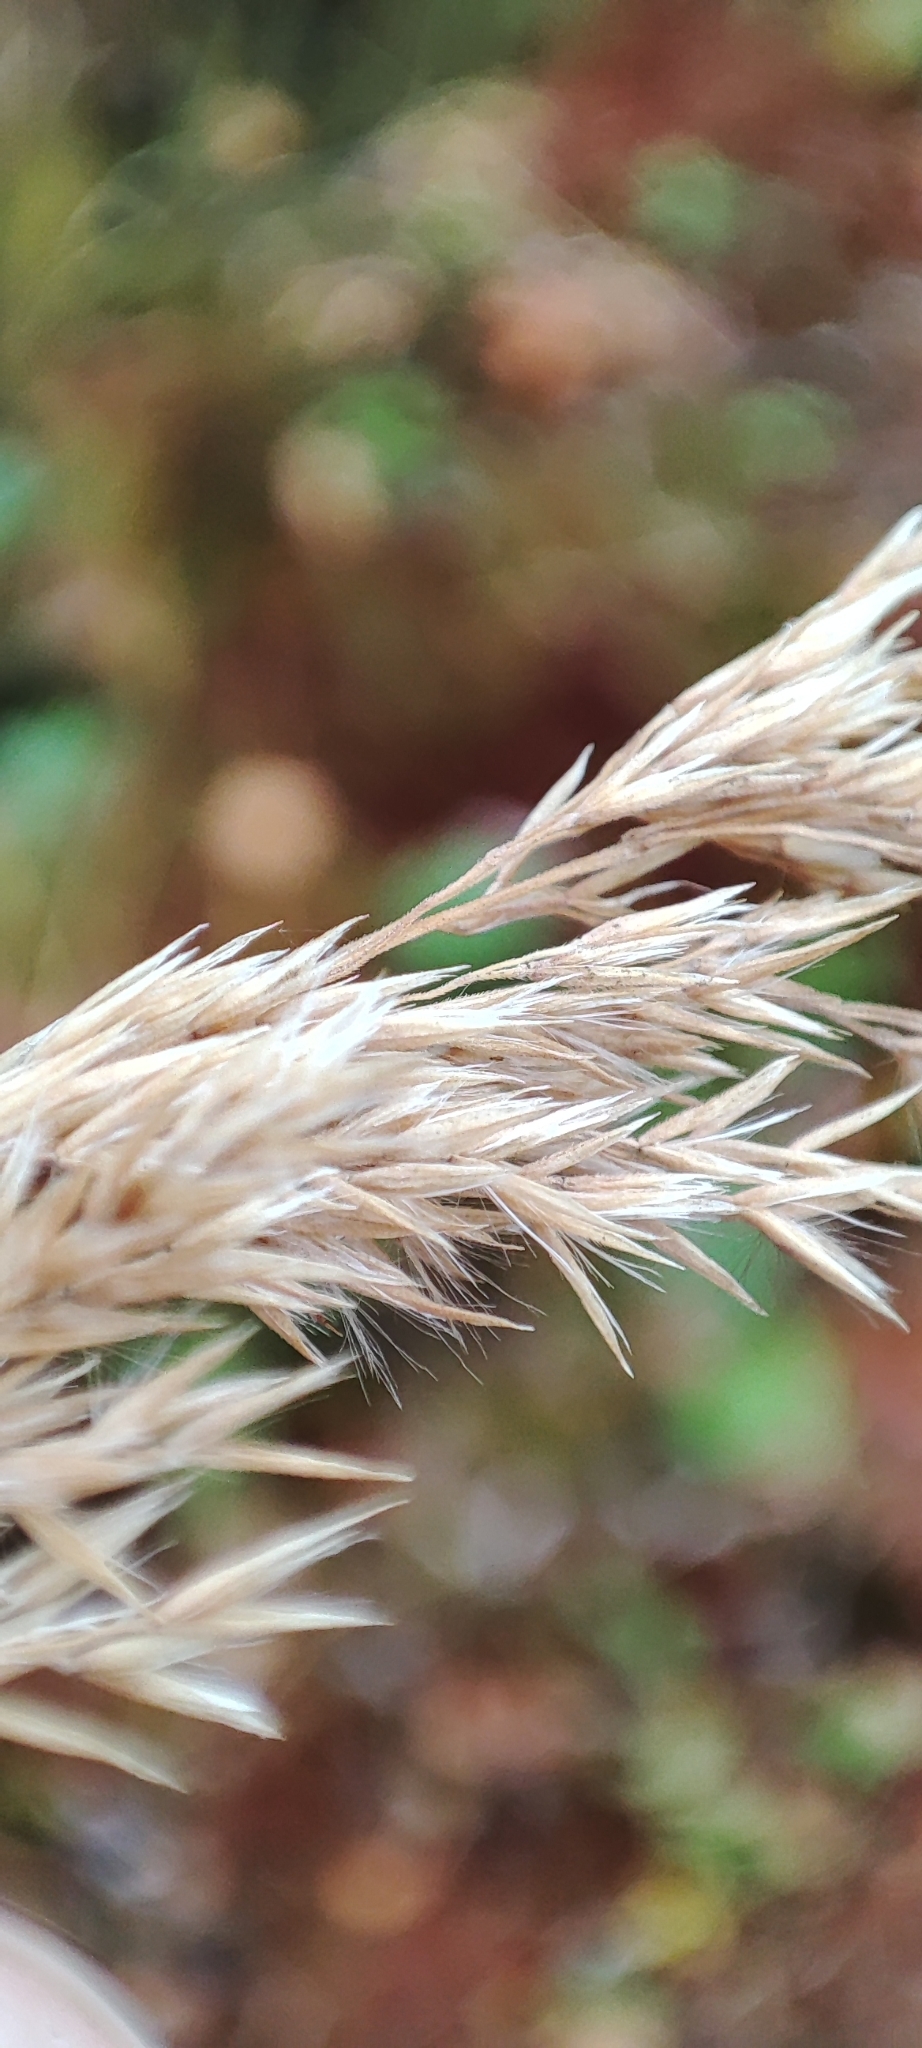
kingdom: Plantae
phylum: Tracheophyta
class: Liliopsida
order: Poales
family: Poaceae
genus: Calamagrostis
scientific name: Calamagrostis purpurea
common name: Scandinavian small-reed
